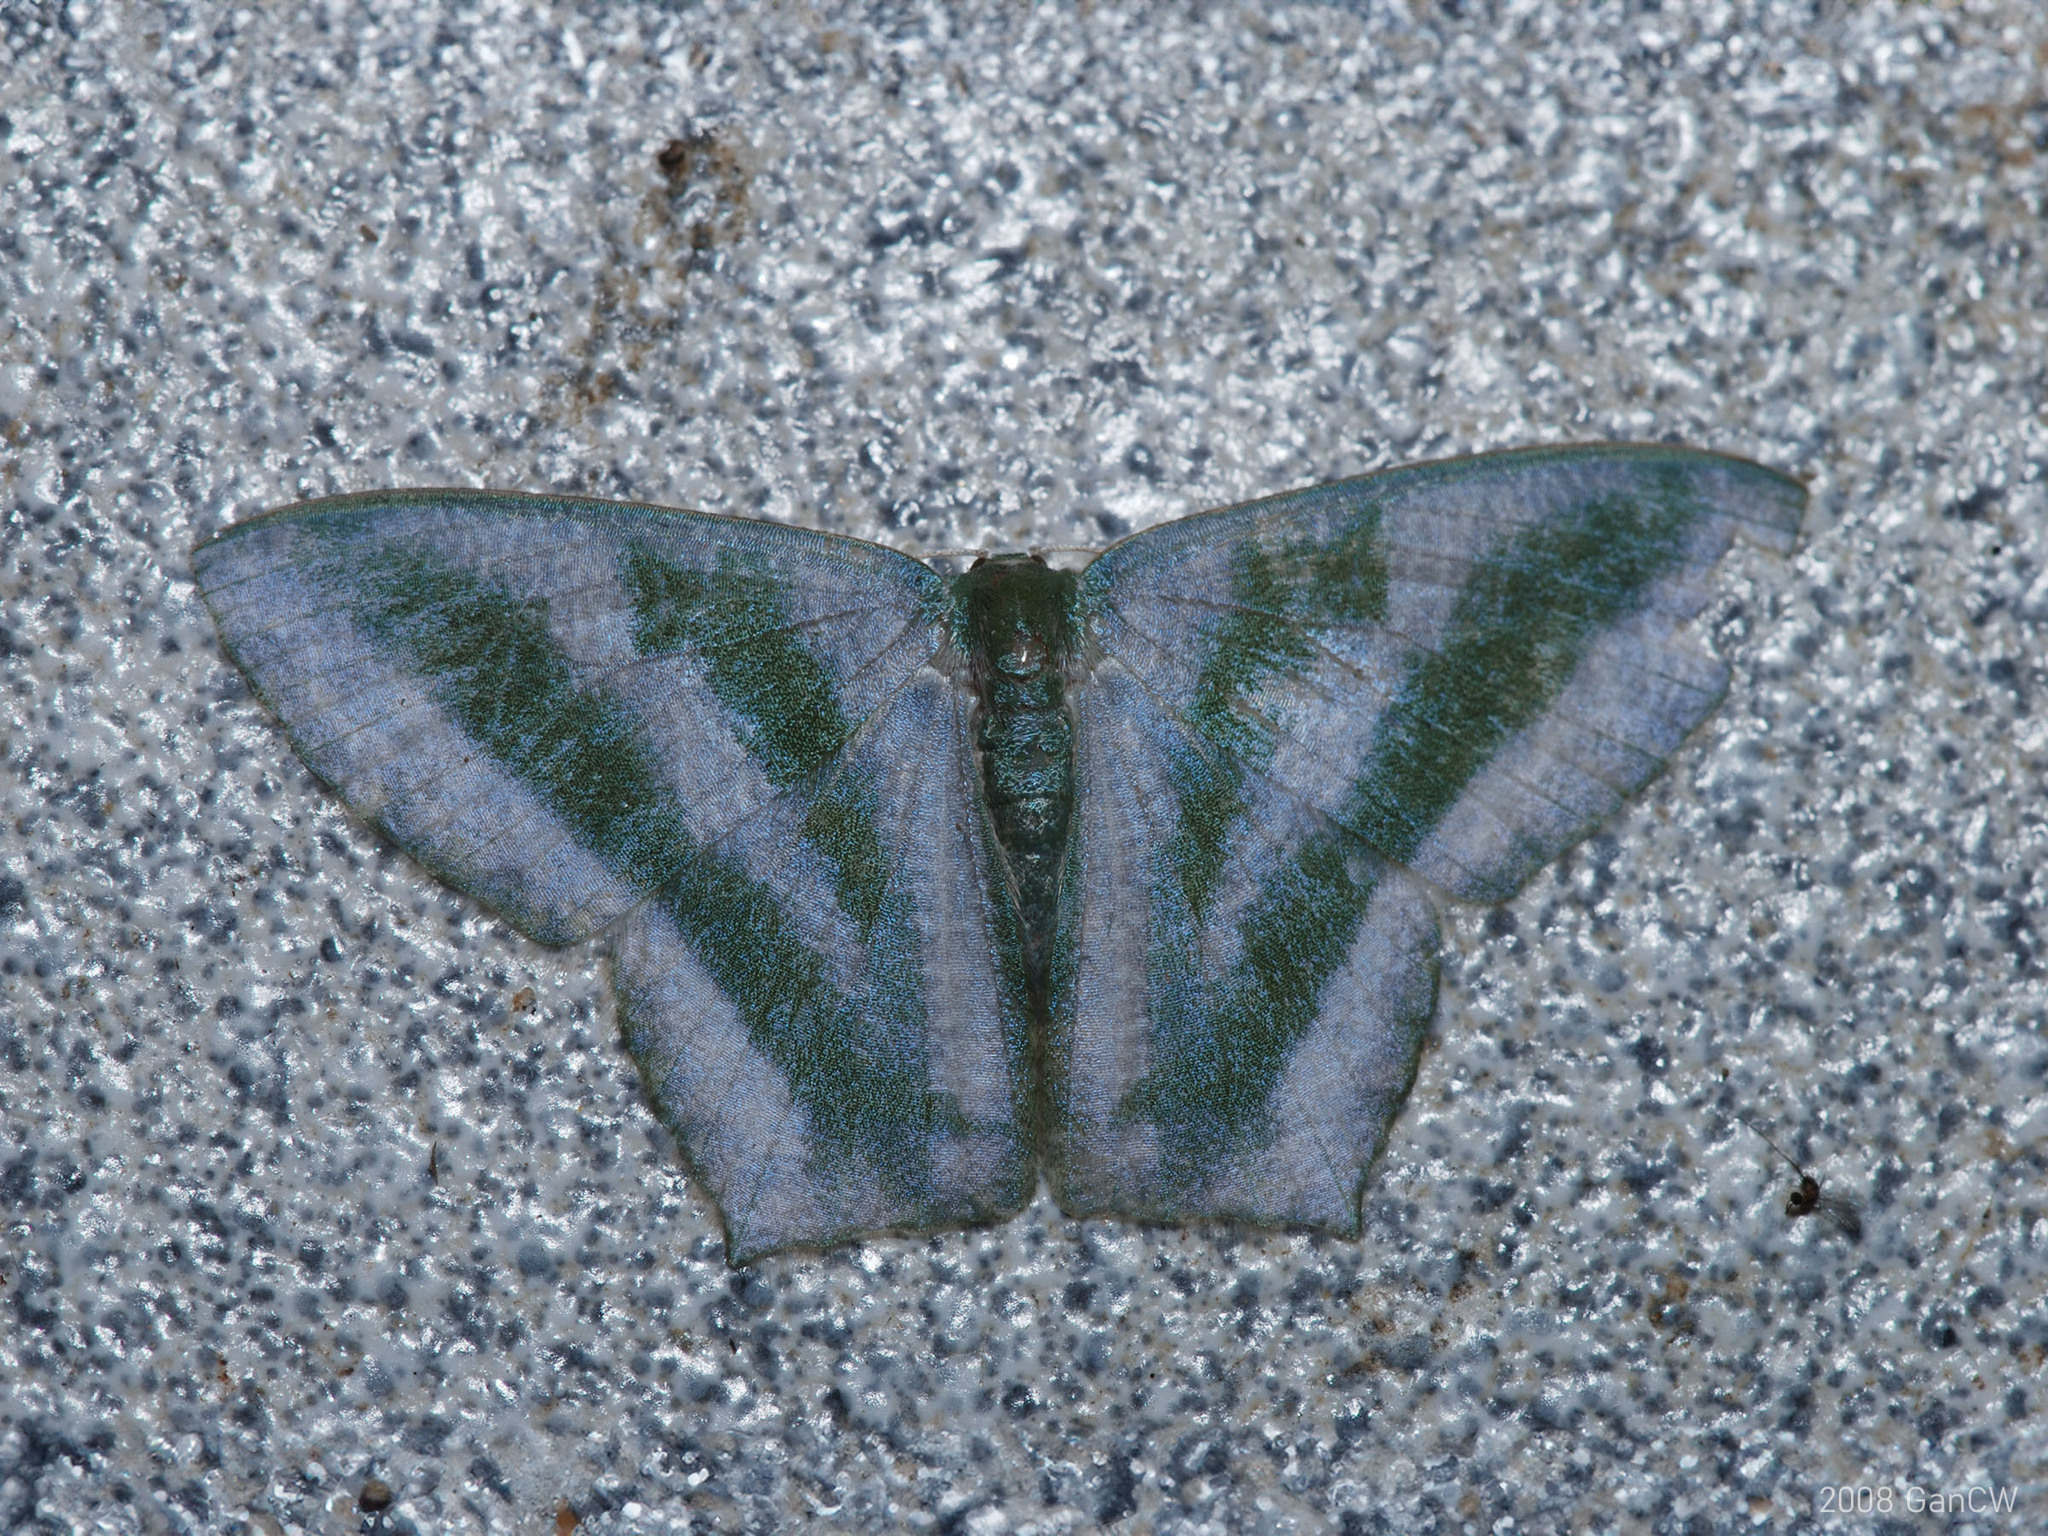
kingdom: Animalia
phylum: Arthropoda
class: Insecta
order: Lepidoptera
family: Geometridae
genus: Maxates
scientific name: Maxates thetydaria
